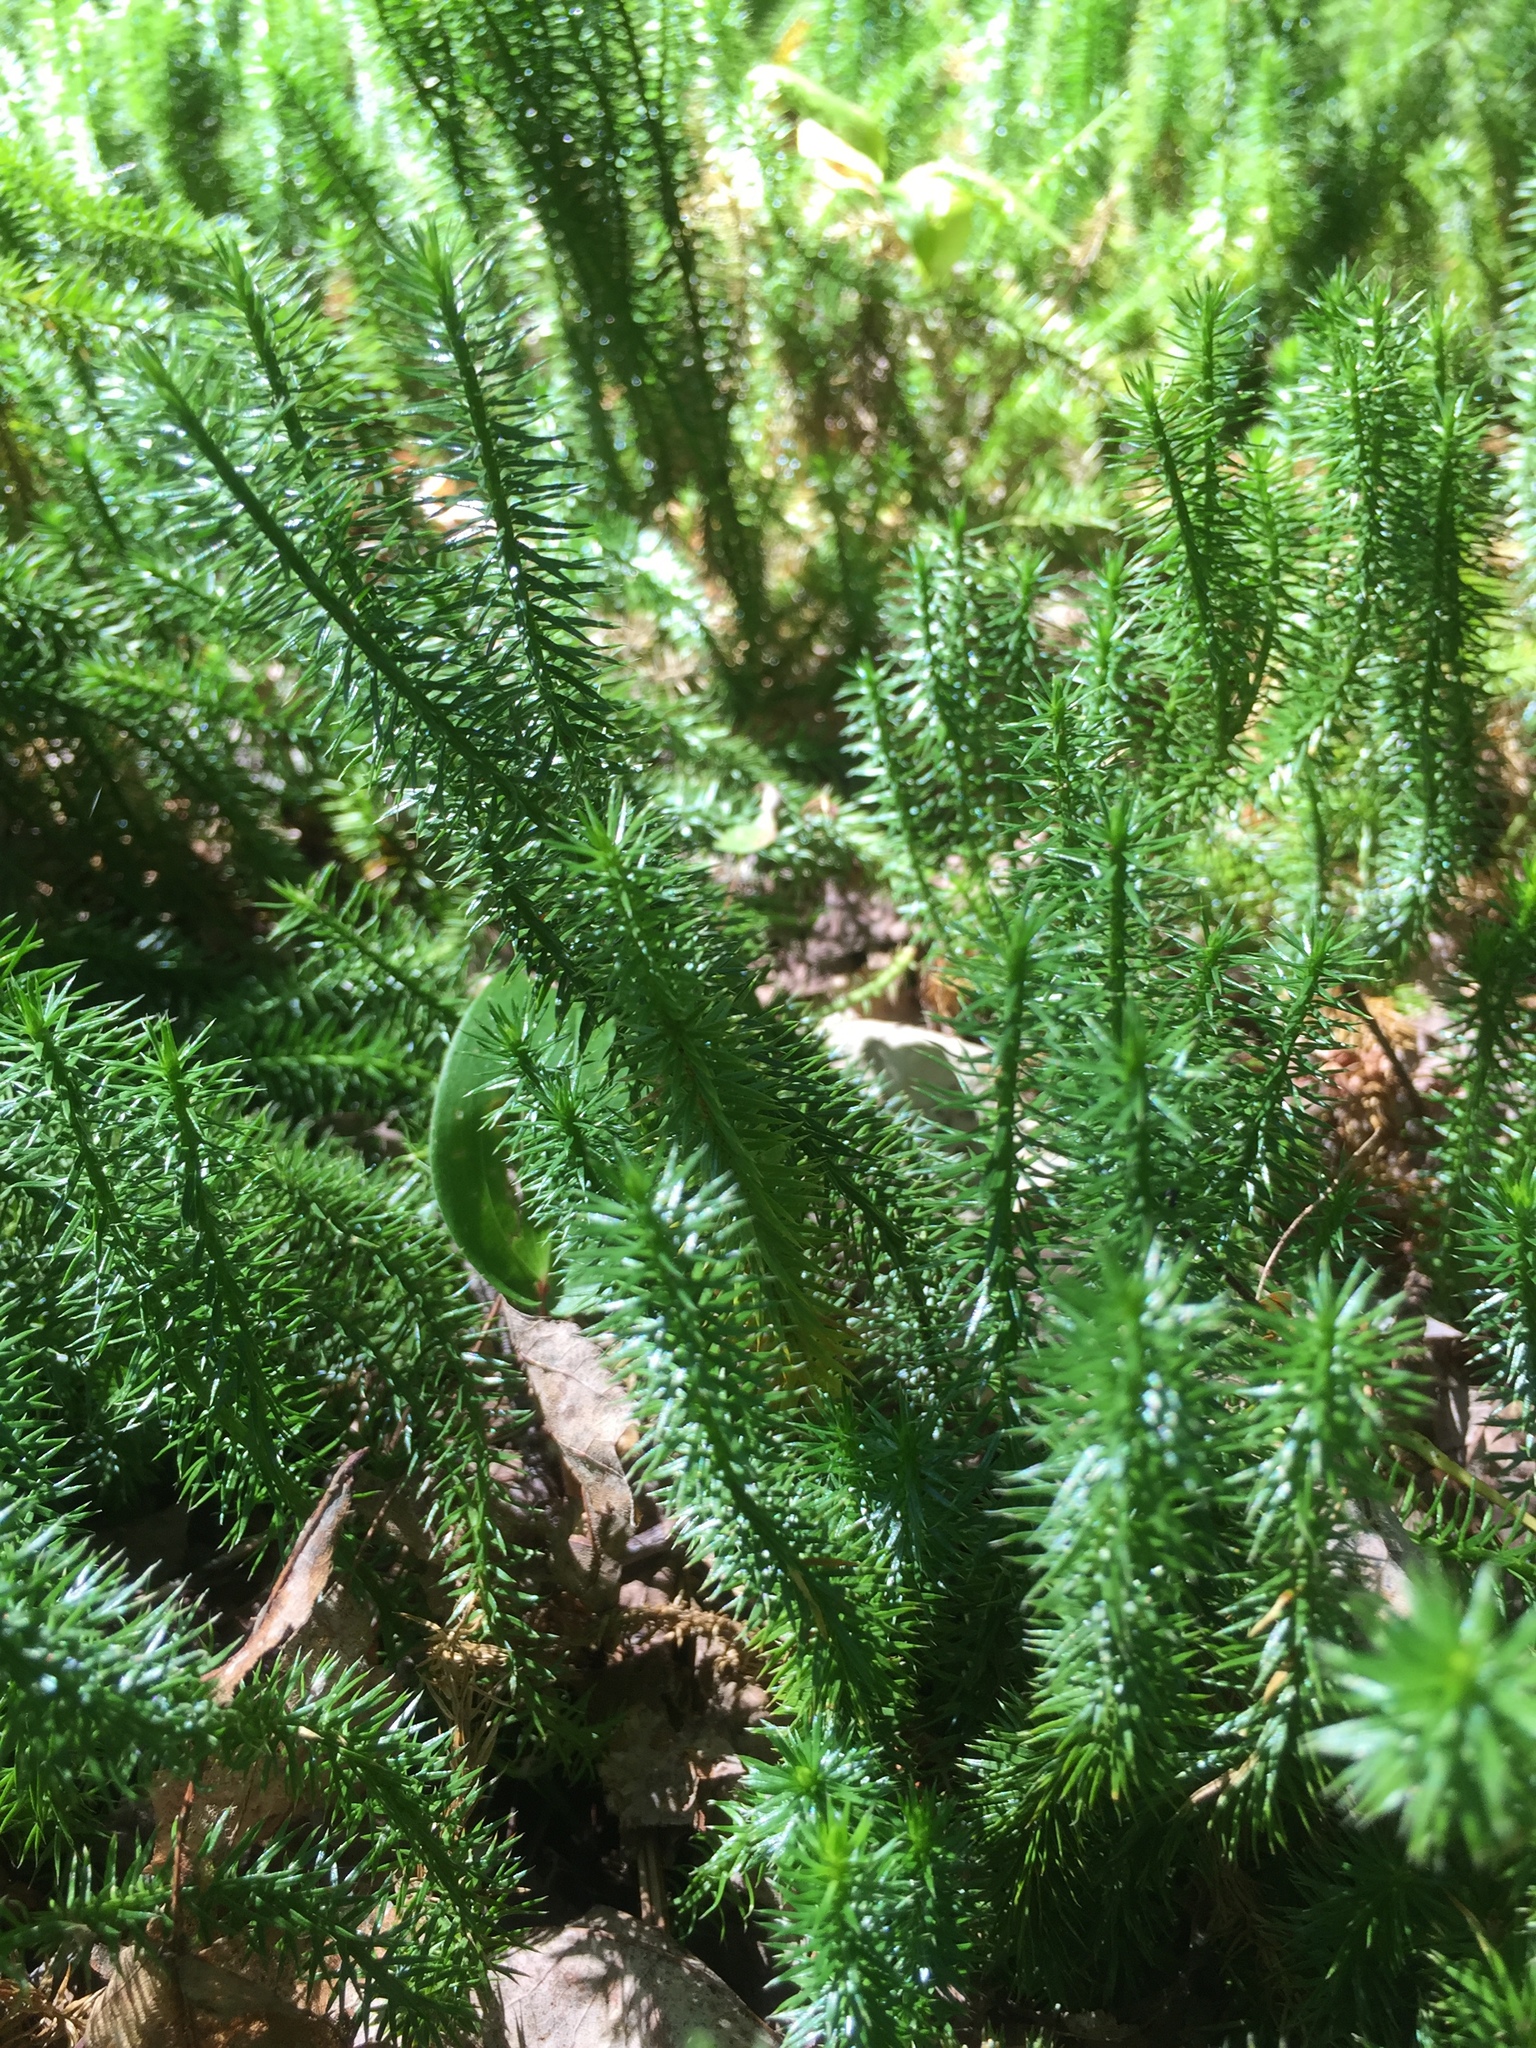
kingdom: Plantae
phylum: Tracheophyta
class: Lycopodiopsida
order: Lycopodiales
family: Lycopodiaceae
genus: Spinulum
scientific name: Spinulum annotinum
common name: Interrupted club-moss
